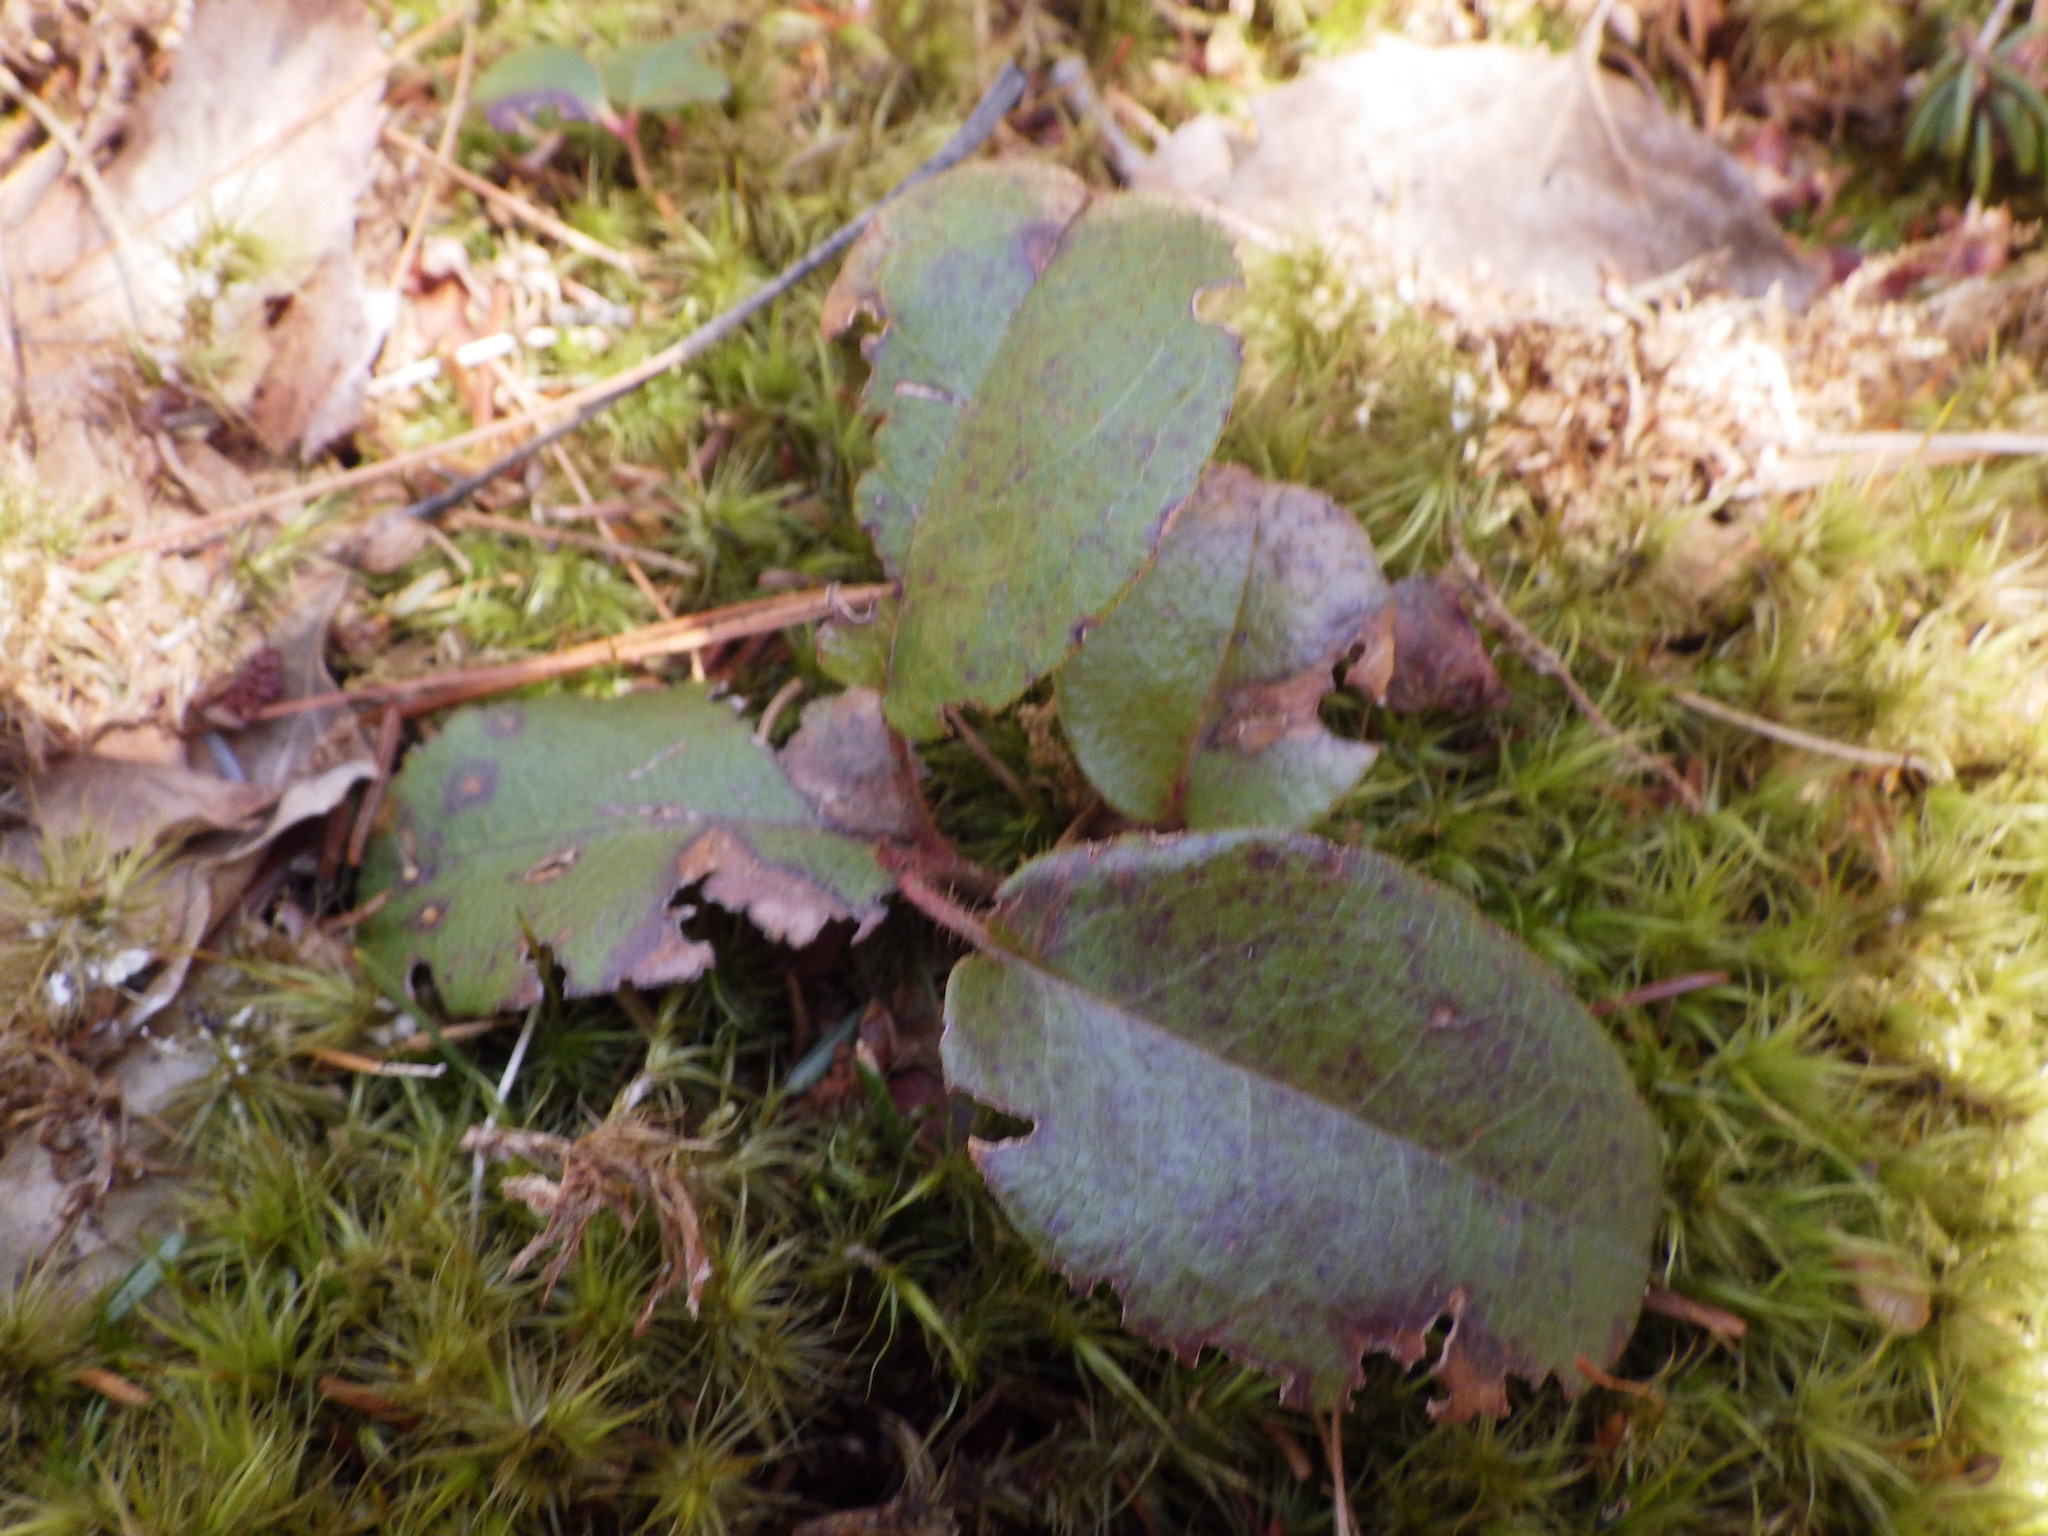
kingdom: Plantae
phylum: Tracheophyta
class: Magnoliopsida
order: Ericales
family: Ericaceae
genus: Epigaea
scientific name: Epigaea repens
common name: Gravelroot
